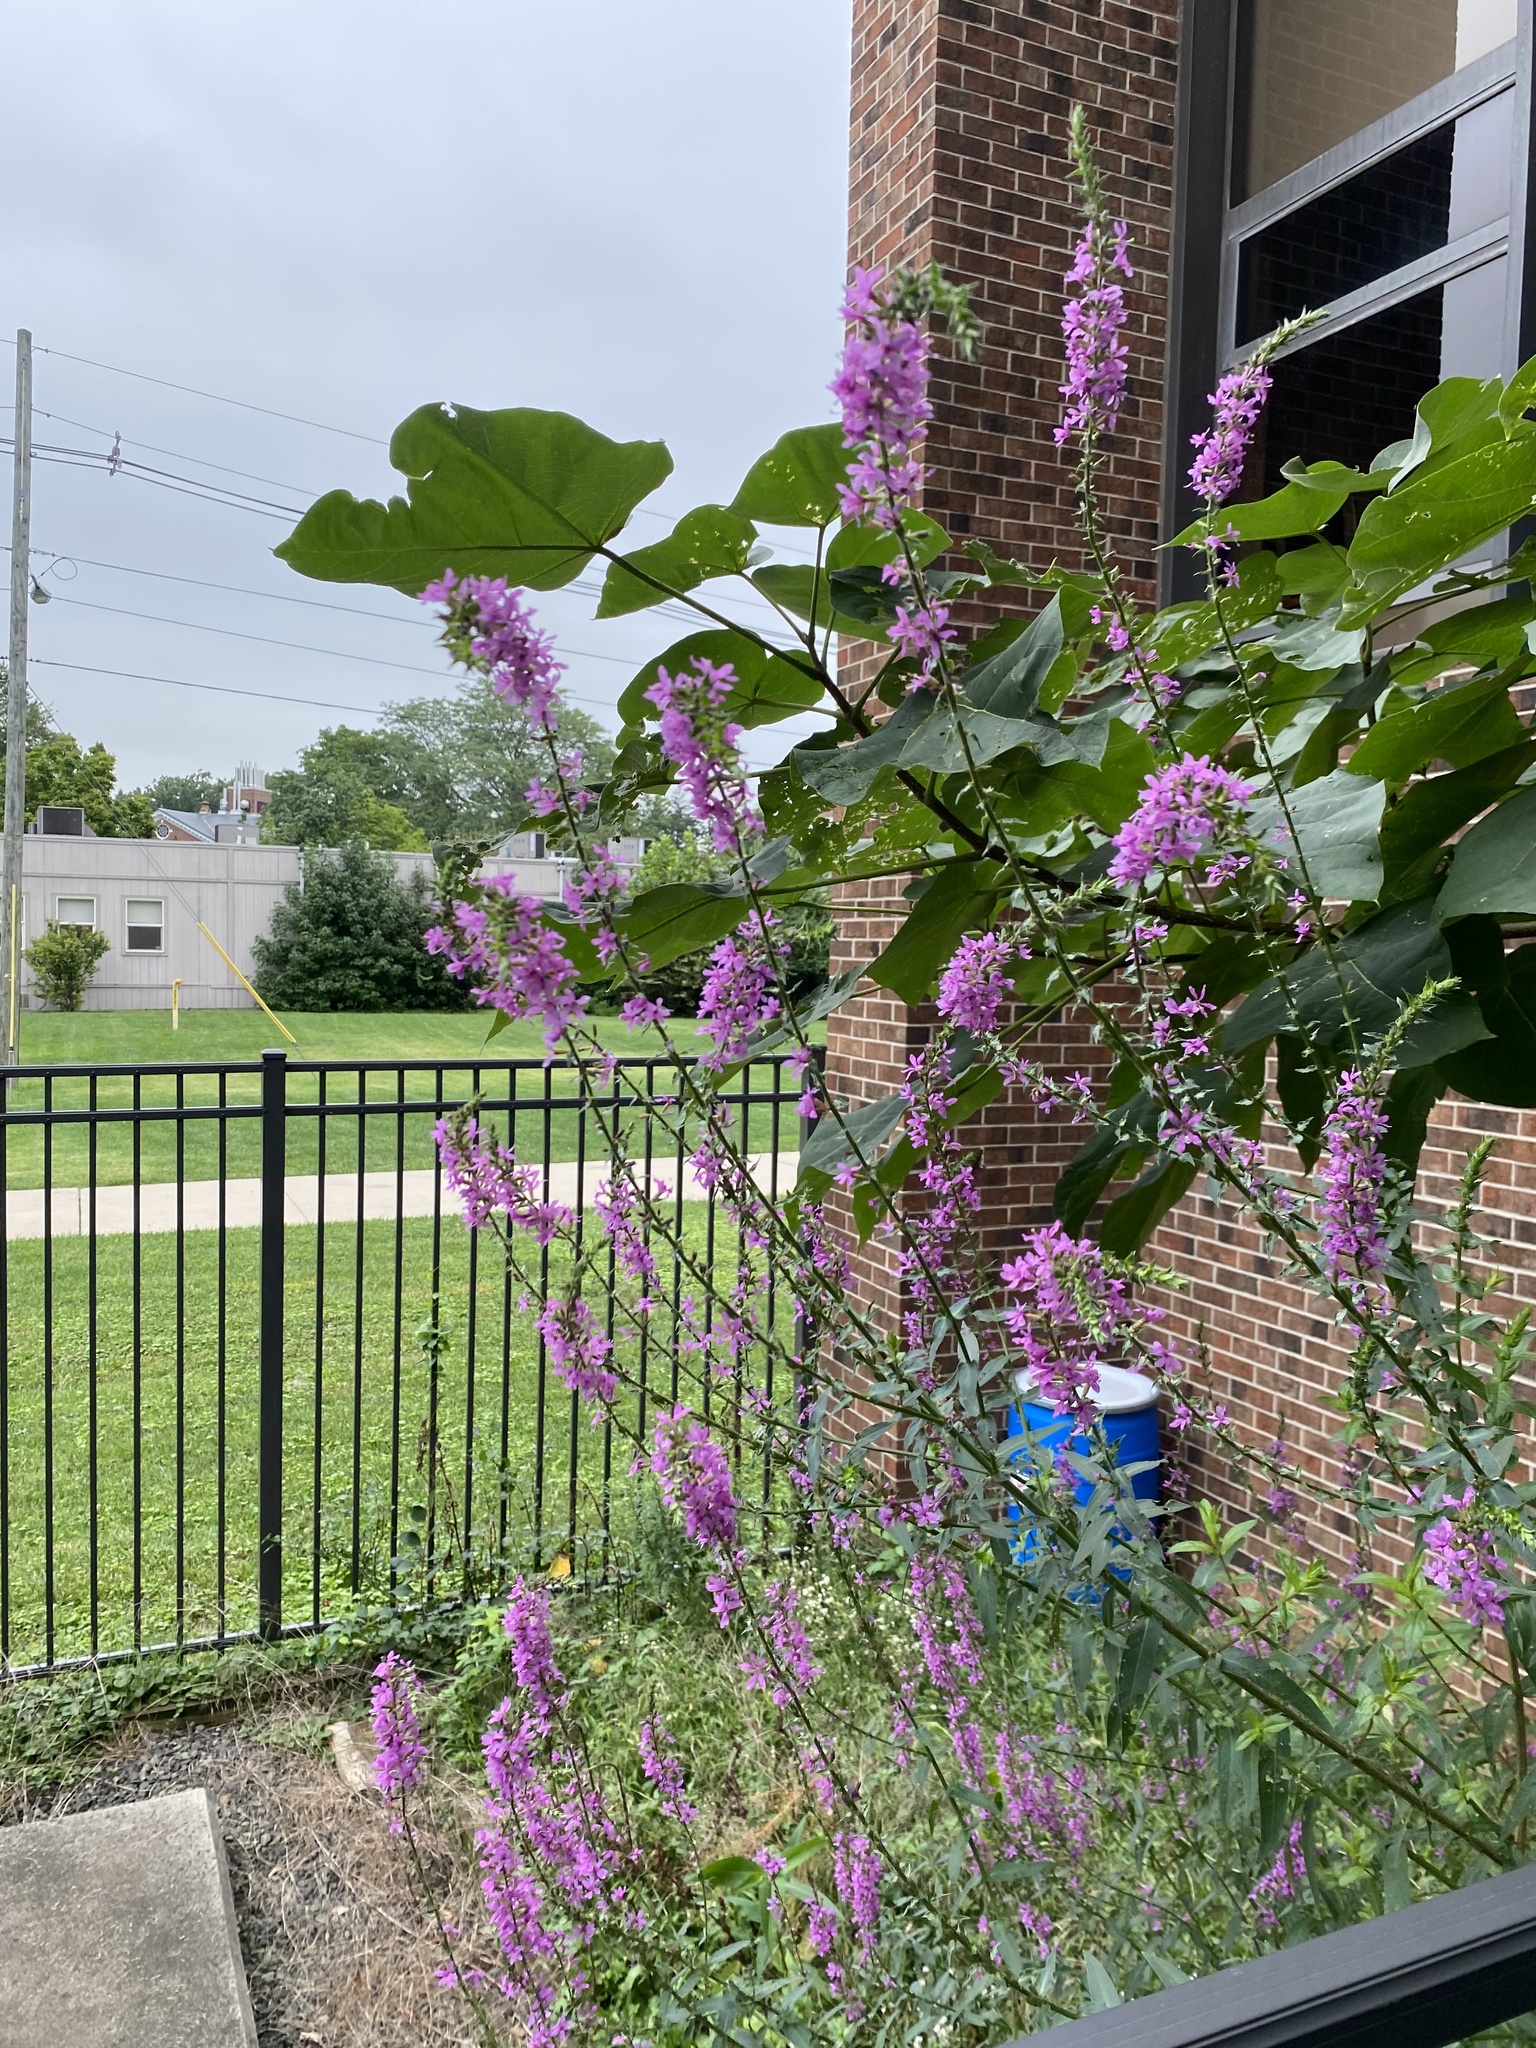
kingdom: Plantae
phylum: Tracheophyta
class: Magnoliopsida
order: Myrtales
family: Lythraceae
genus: Lythrum
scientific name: Lythrum salicaria
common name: Purple loosestrife
